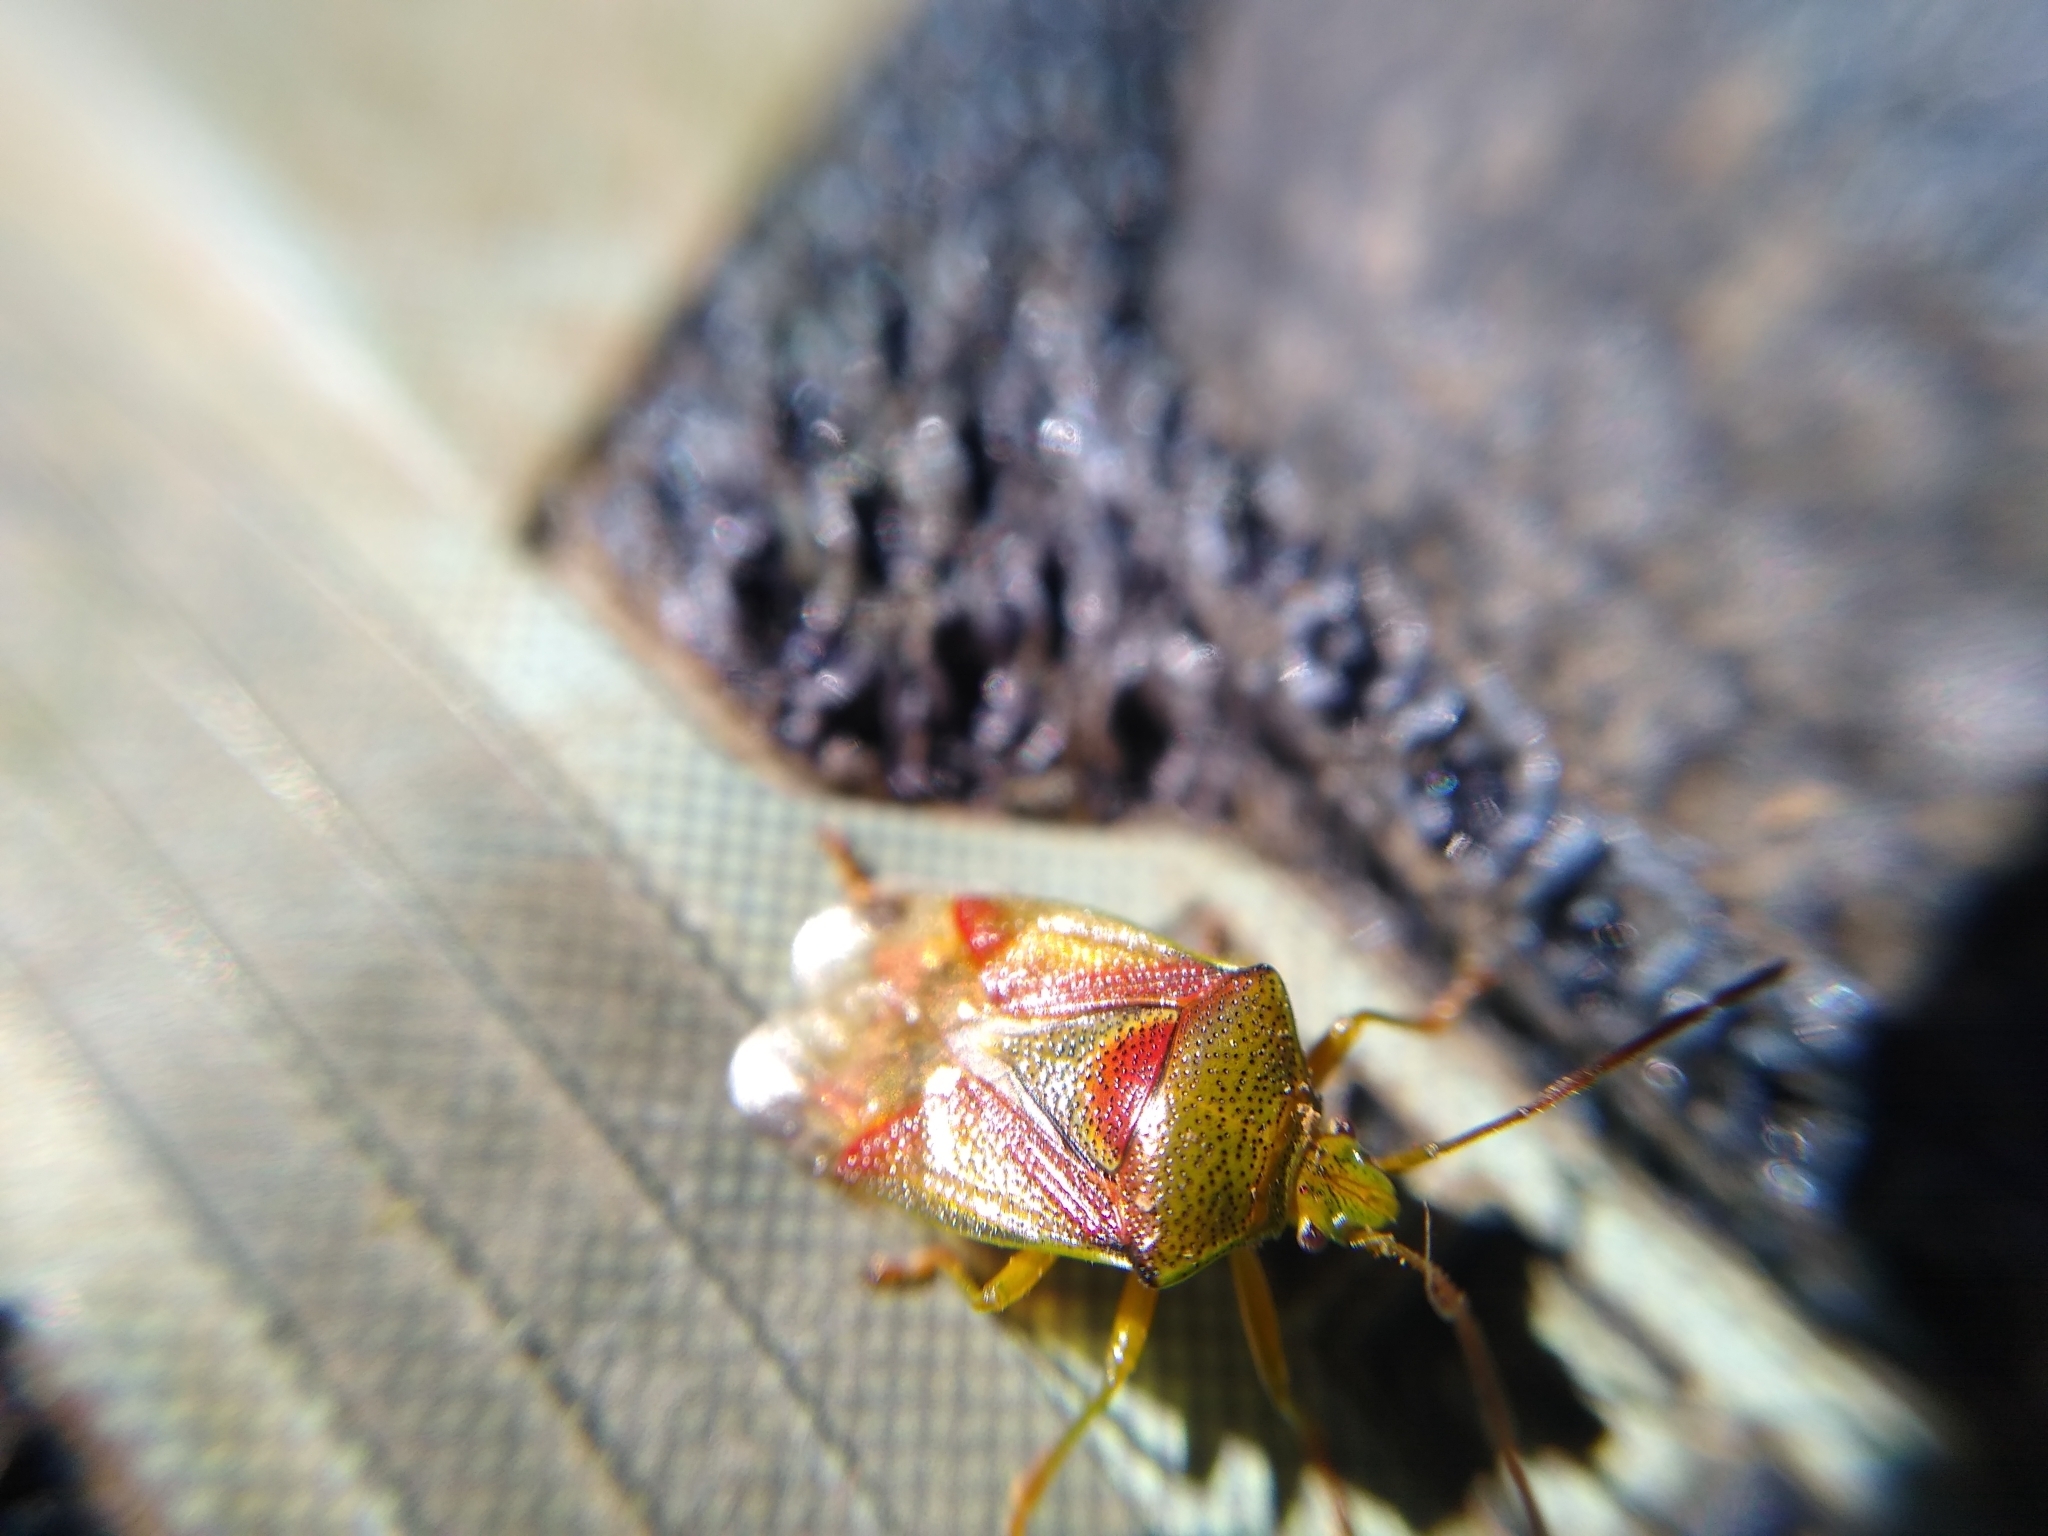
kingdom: Animalia
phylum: Arthropoda
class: Insecta
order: Hemiptera
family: Acanthosomatidae
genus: Elasmostethus
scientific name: Elasmostethus interstinctus
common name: Birch shieldbug
